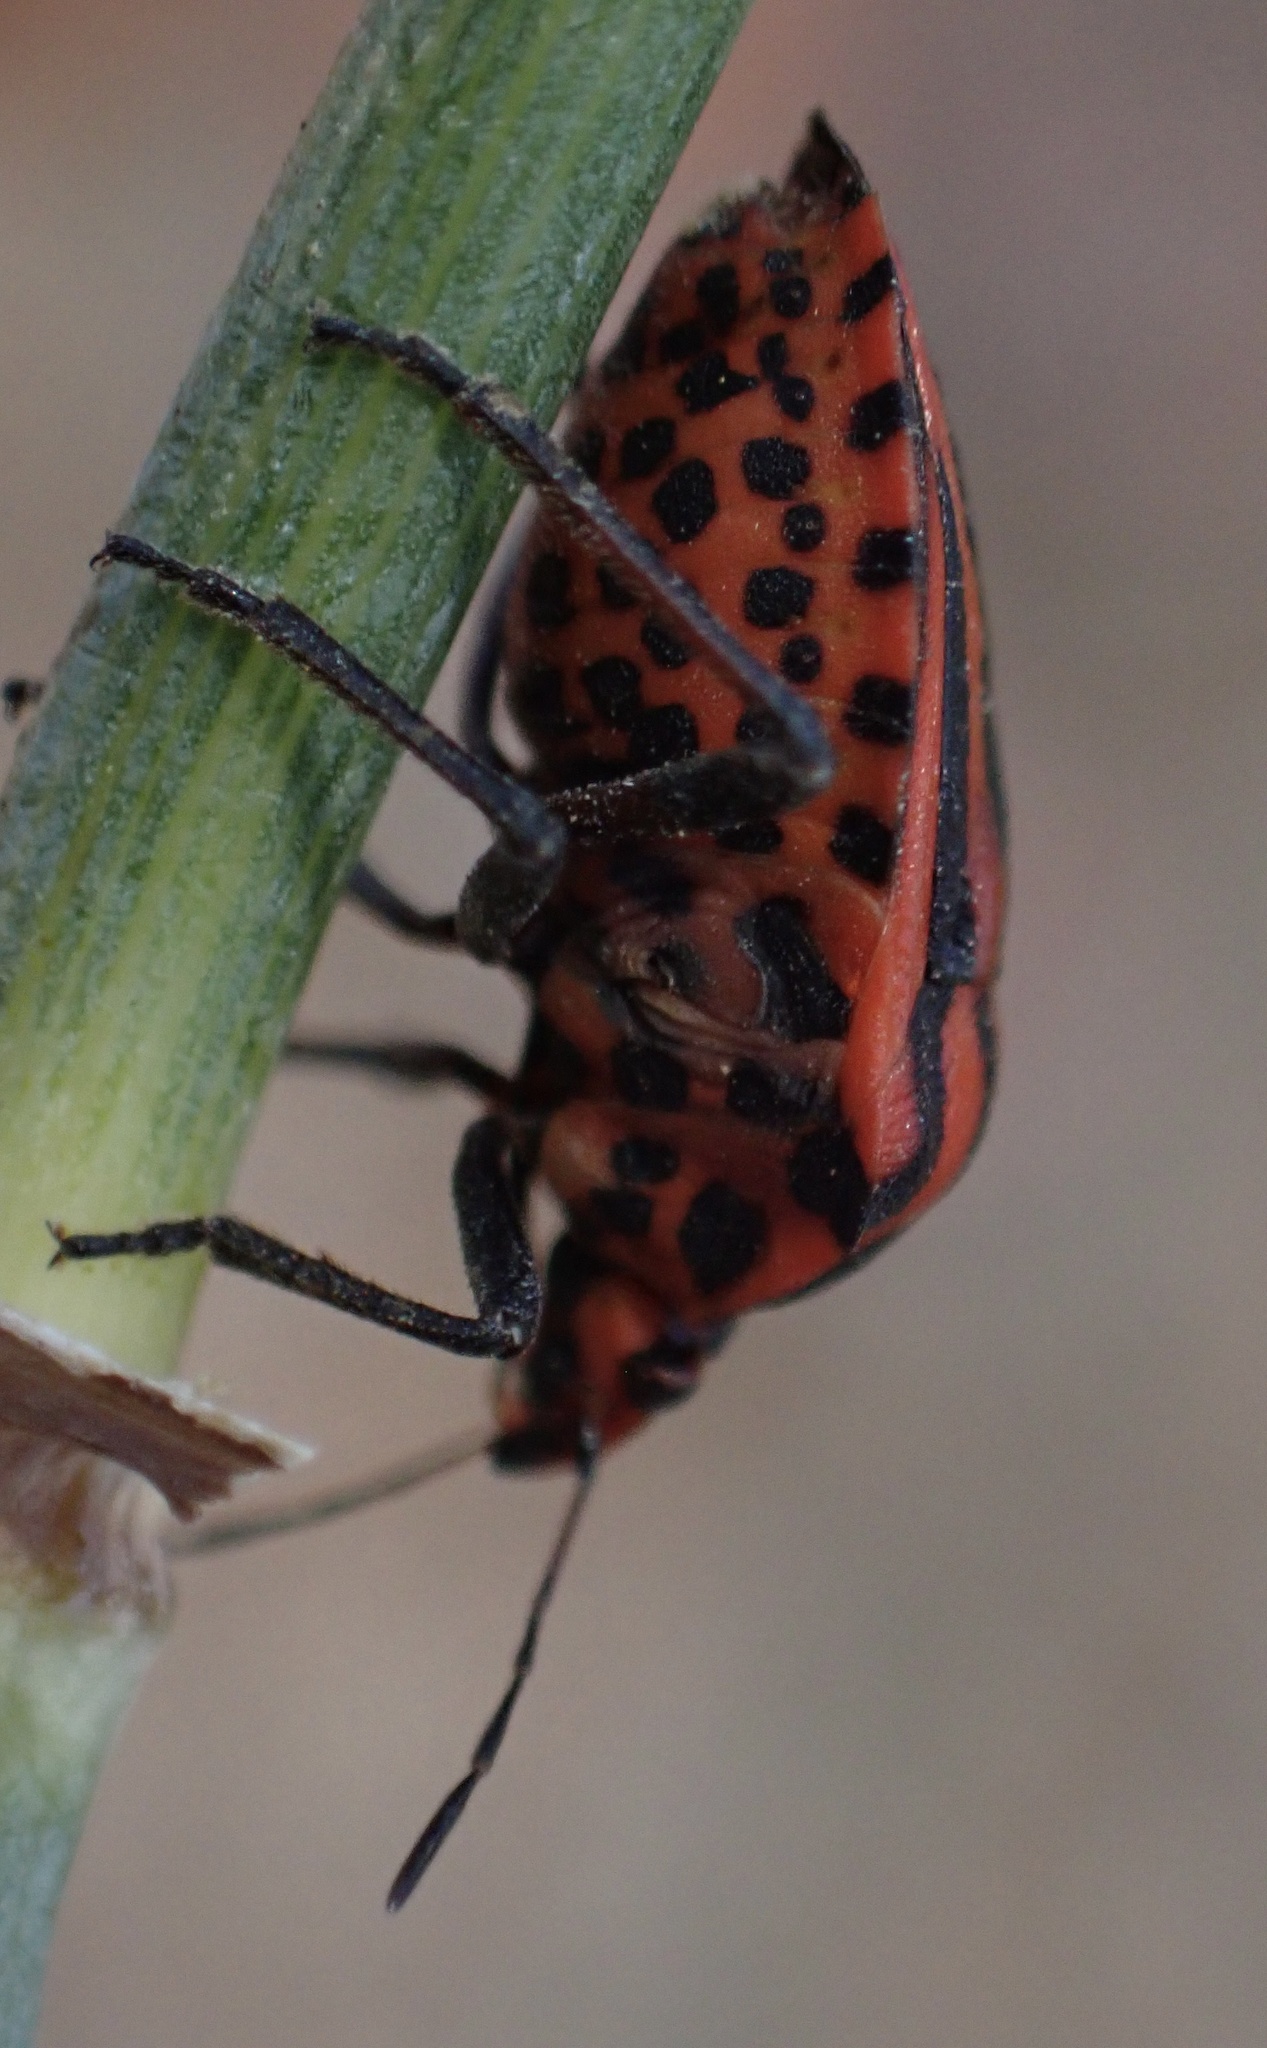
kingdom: Animalia
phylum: Arthropoda
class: Insecta
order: Hemiptera
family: Pentatomidae
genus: Graphosoma
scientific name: Graphosoma italicum
